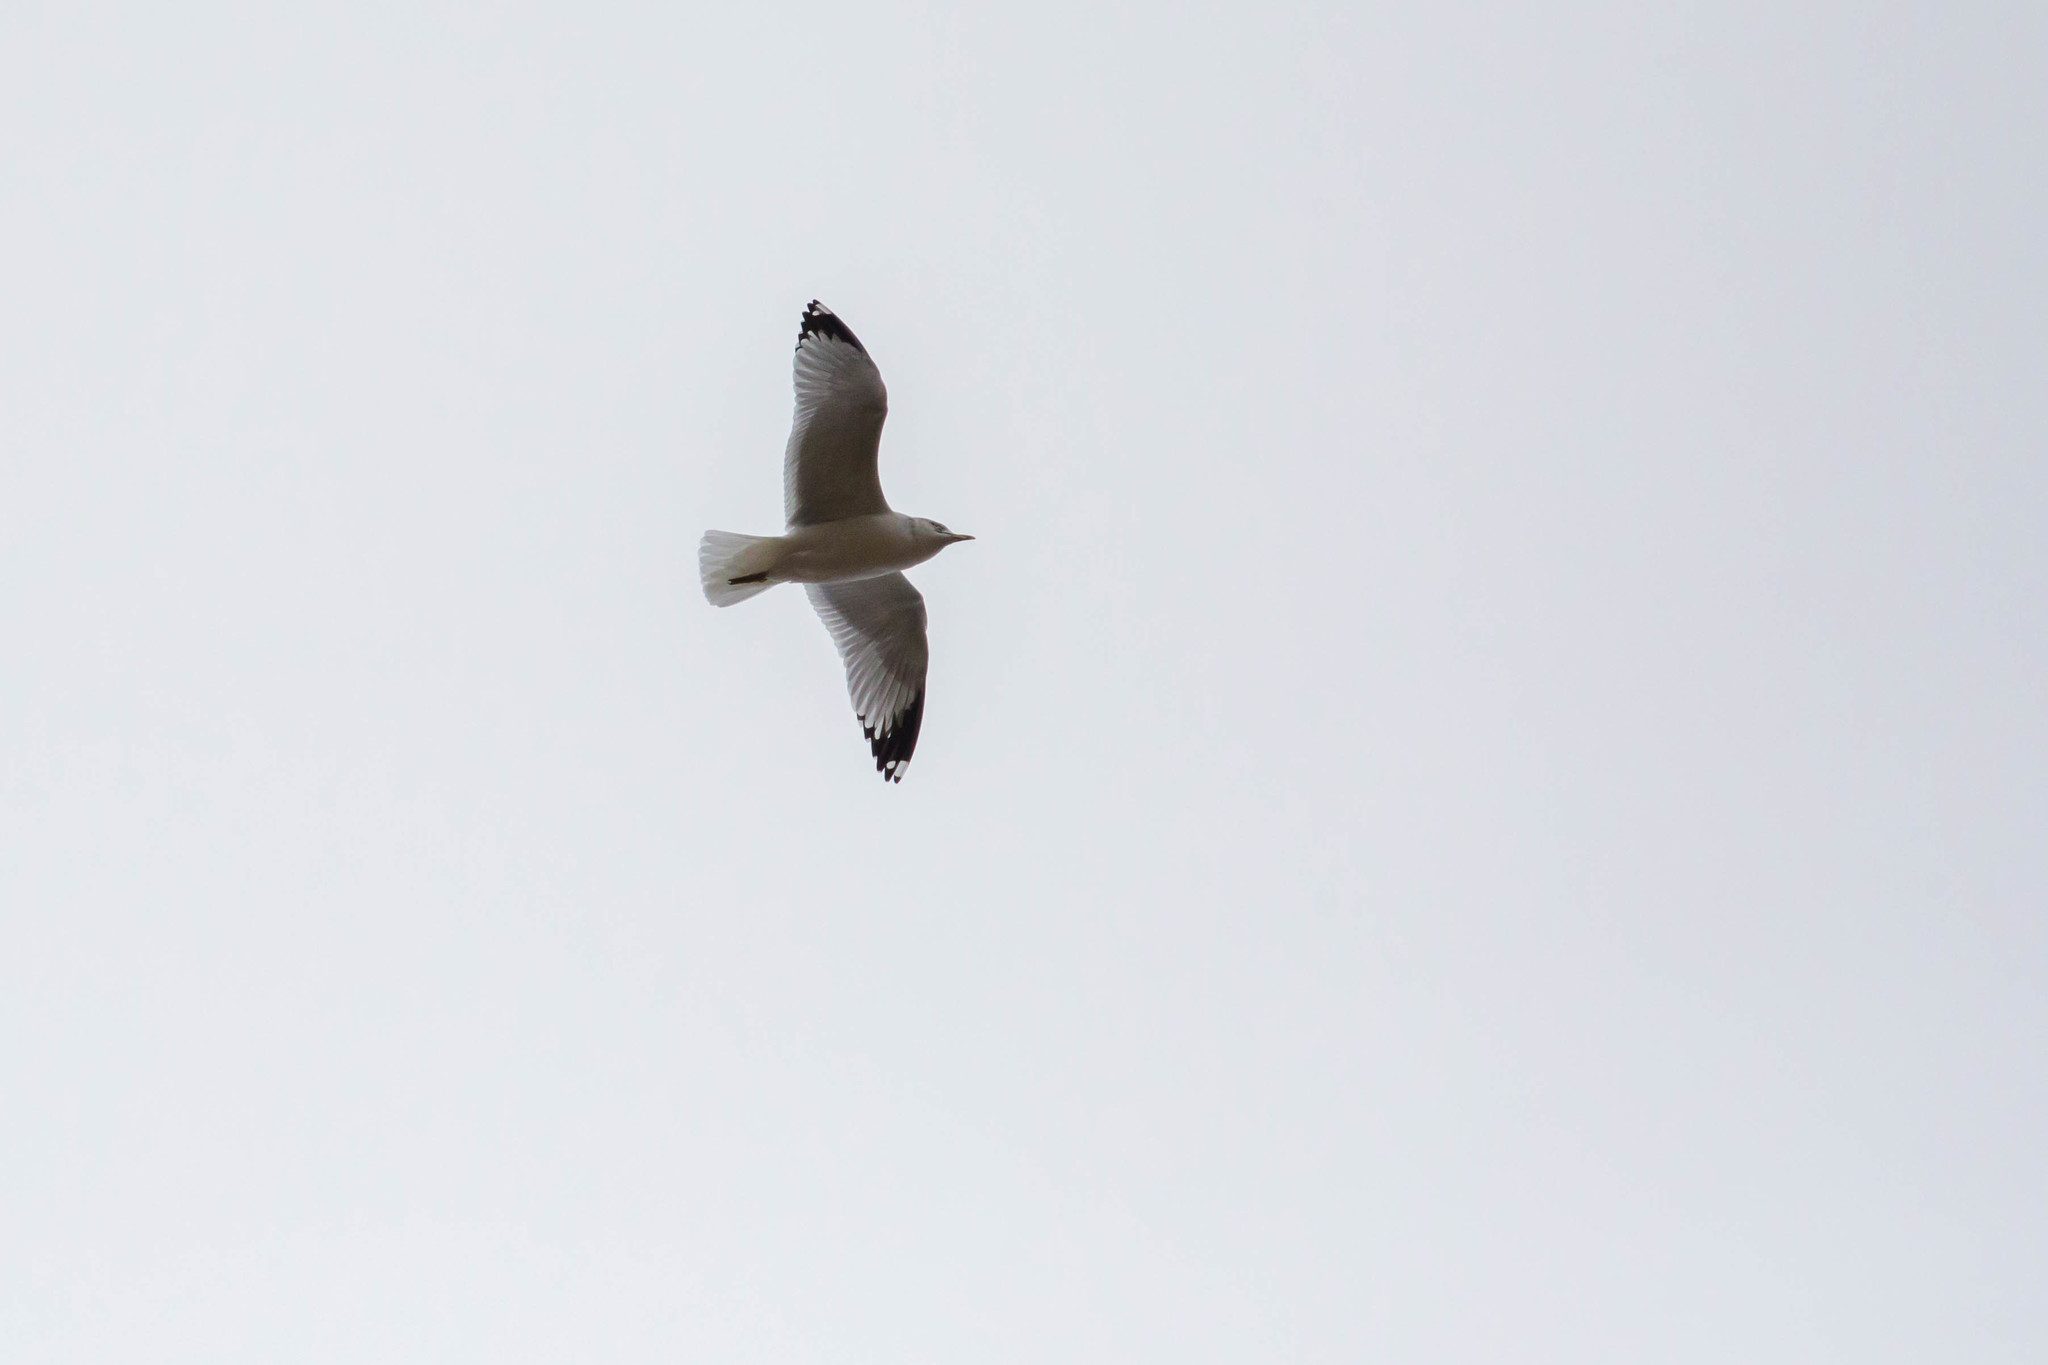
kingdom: Animalia
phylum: Chordata
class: Aves
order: Charadriiformes
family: Laridae
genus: Larus
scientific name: Larus delawarensis
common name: Ring-billed gull
